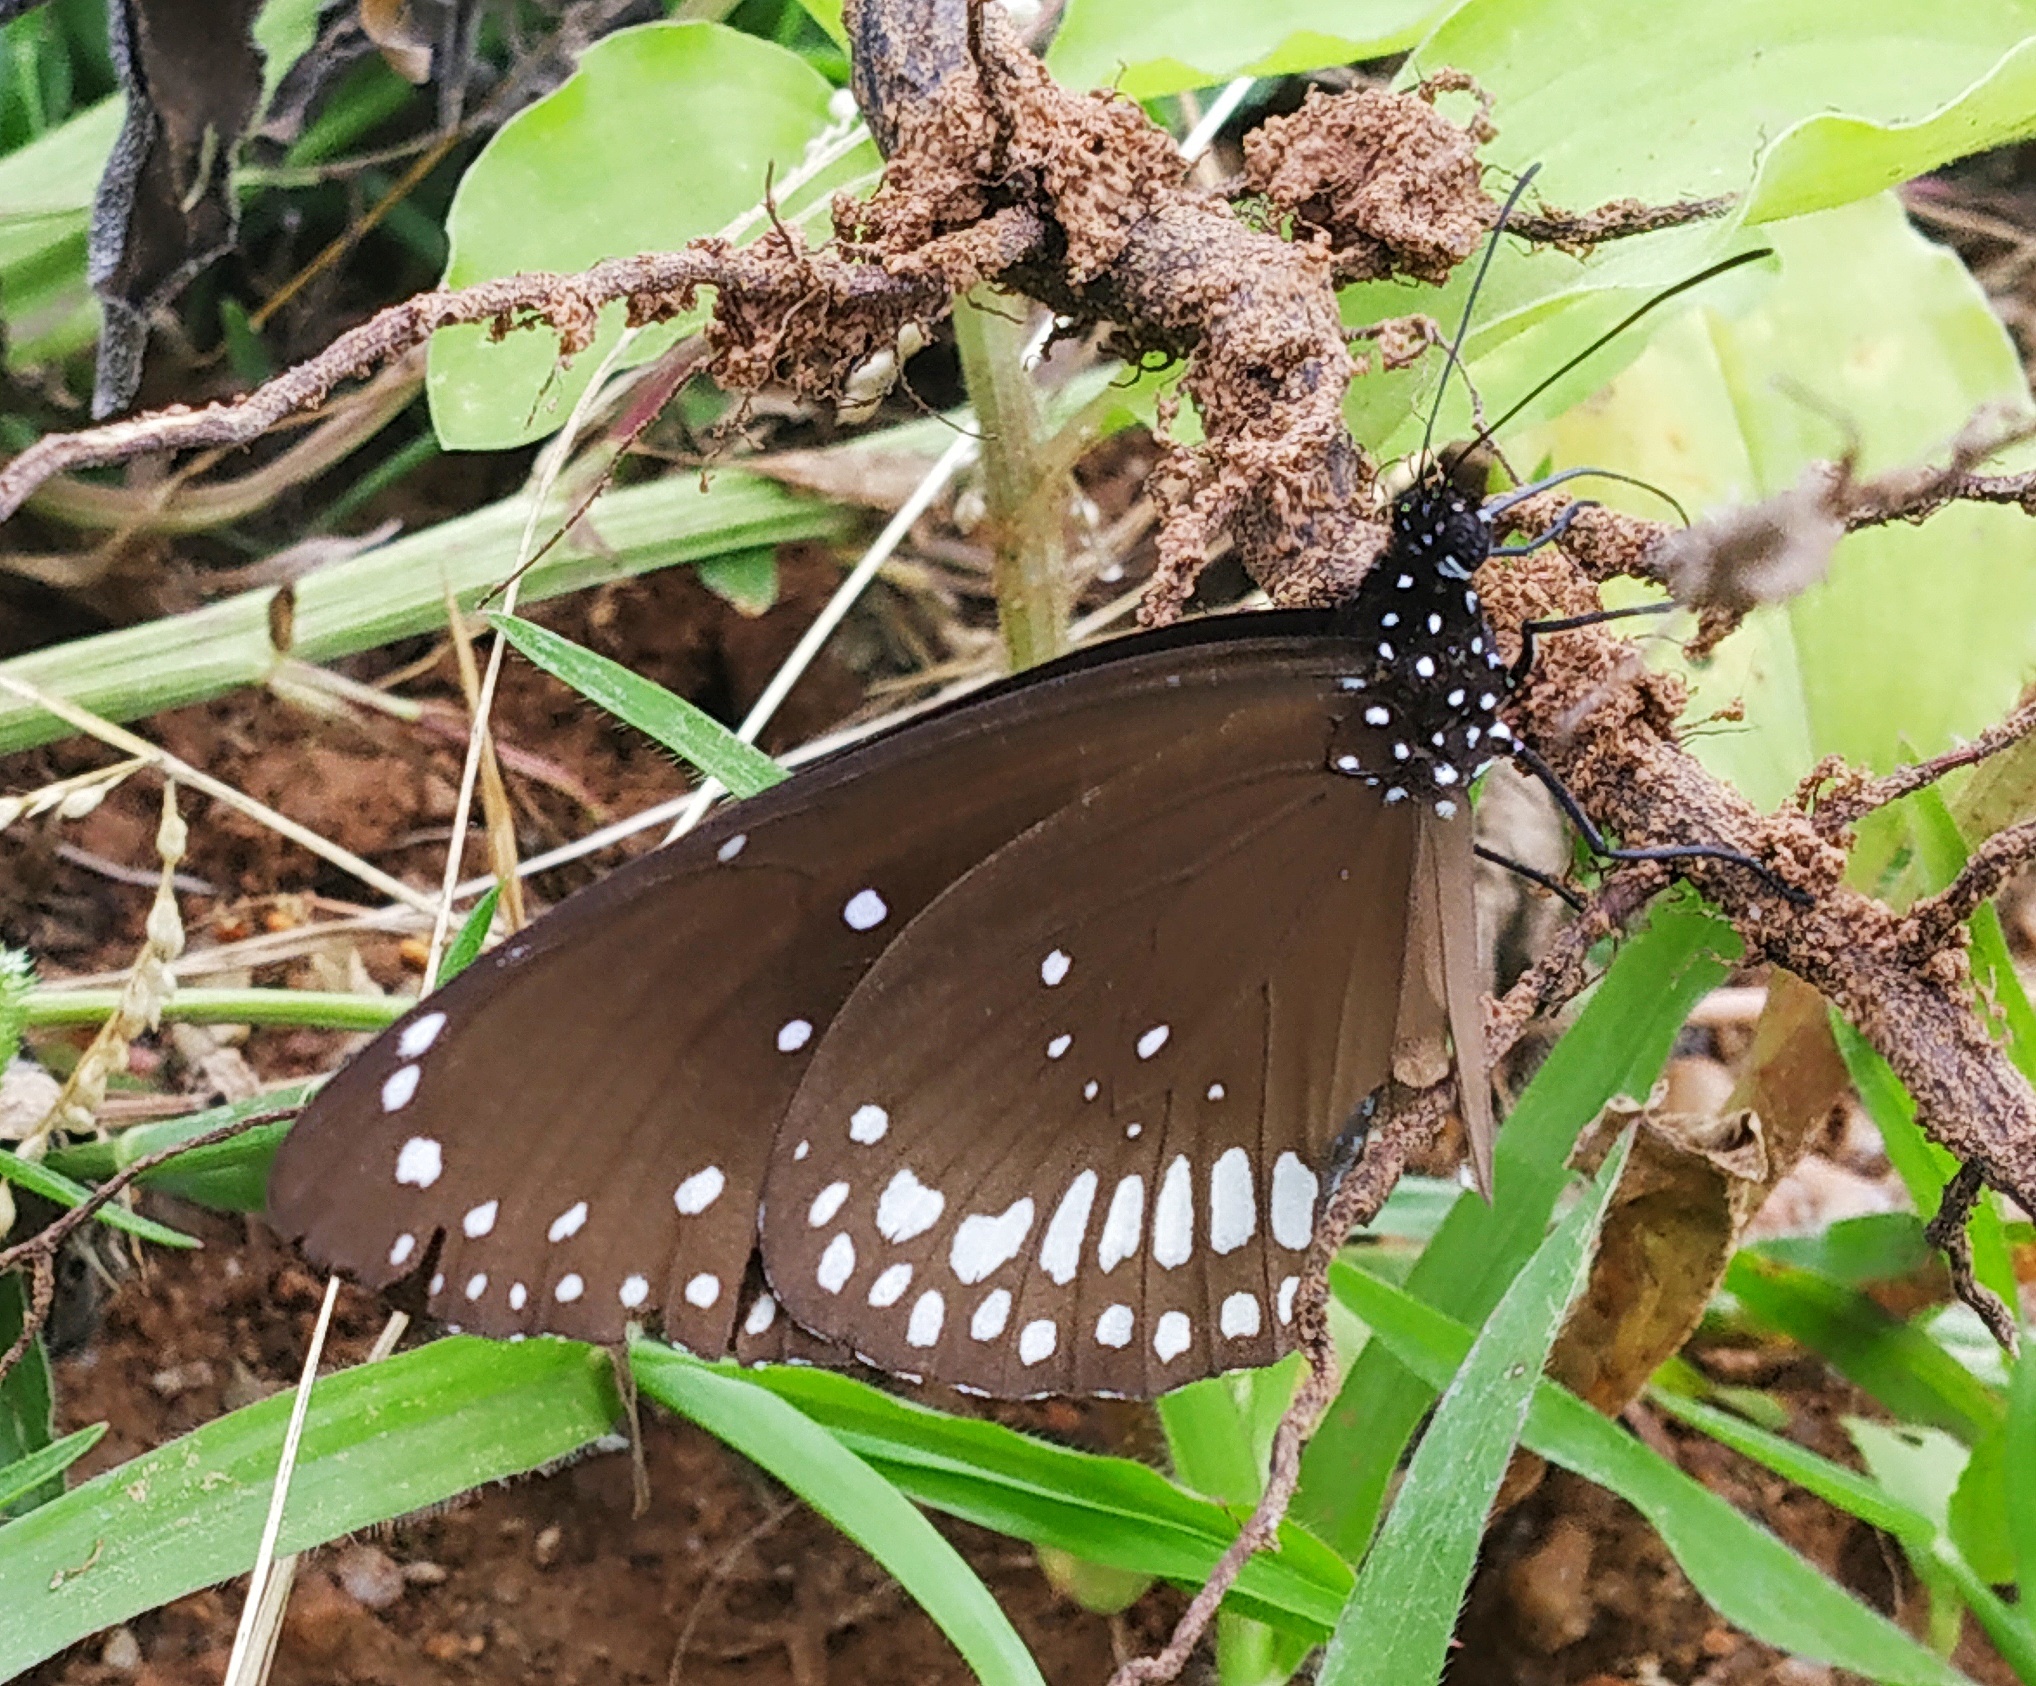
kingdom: Animalia
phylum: Arthropoda
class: Insecta
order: Lepidoptera
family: Nymphalidae
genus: Euploea
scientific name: Euploea core
